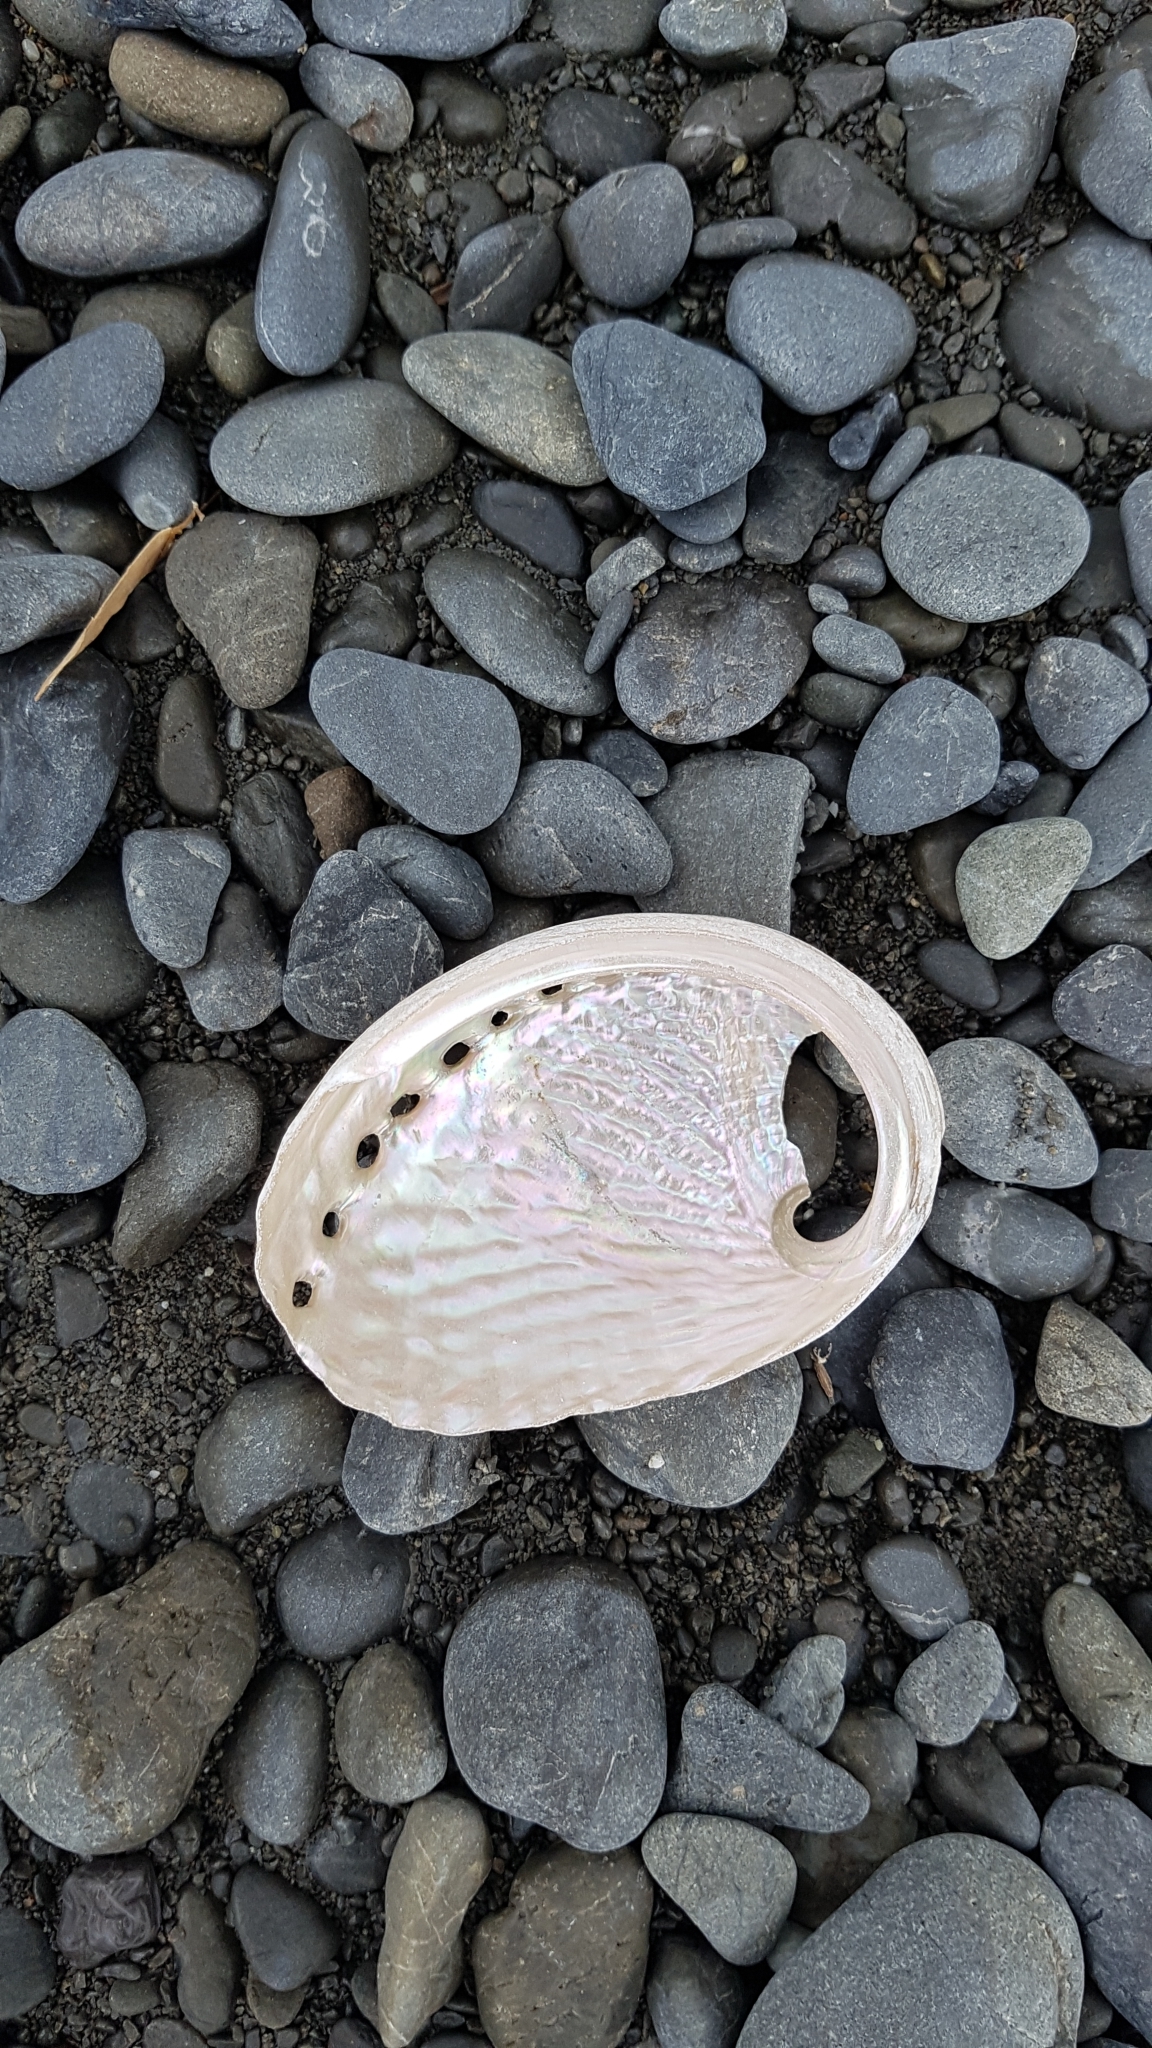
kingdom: Animalia
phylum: Mollusca
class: Gastropoda
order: Lepetellida
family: Haliotidae
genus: Haliotis
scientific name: Haliotis australis
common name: Silver abalone
